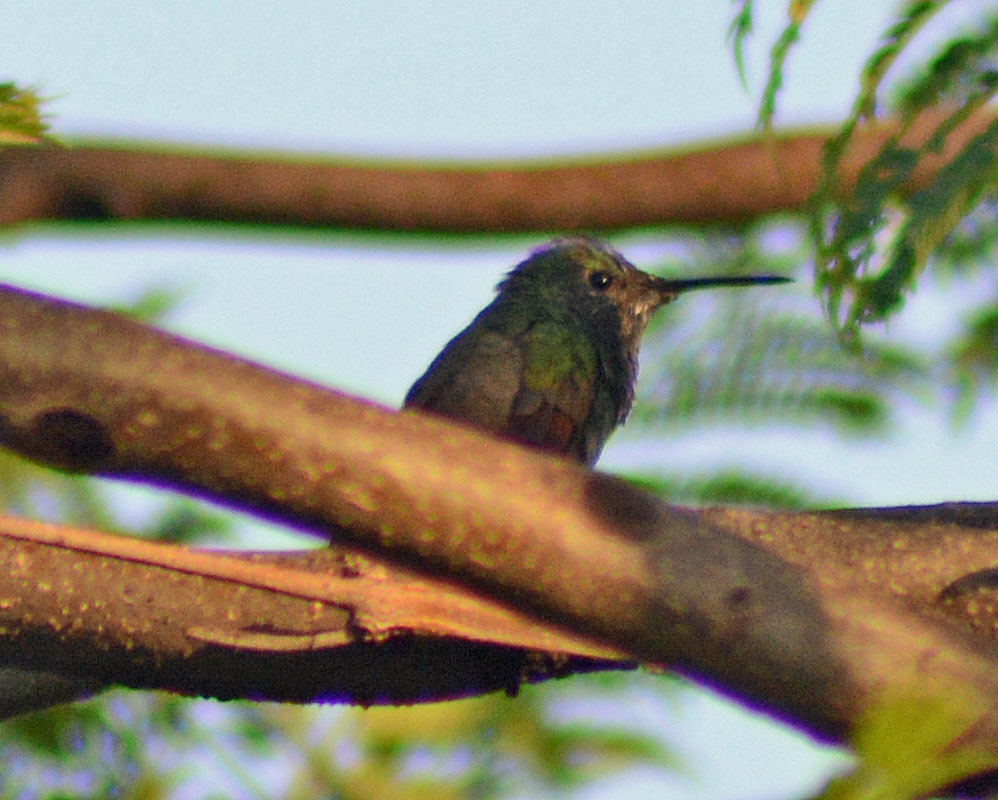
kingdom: Animalia
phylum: Chordata
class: Aves
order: Apodiformes
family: Trochilidae
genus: Saucerottia
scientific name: Saucerottia beryllina
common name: Berylline hummingbird
